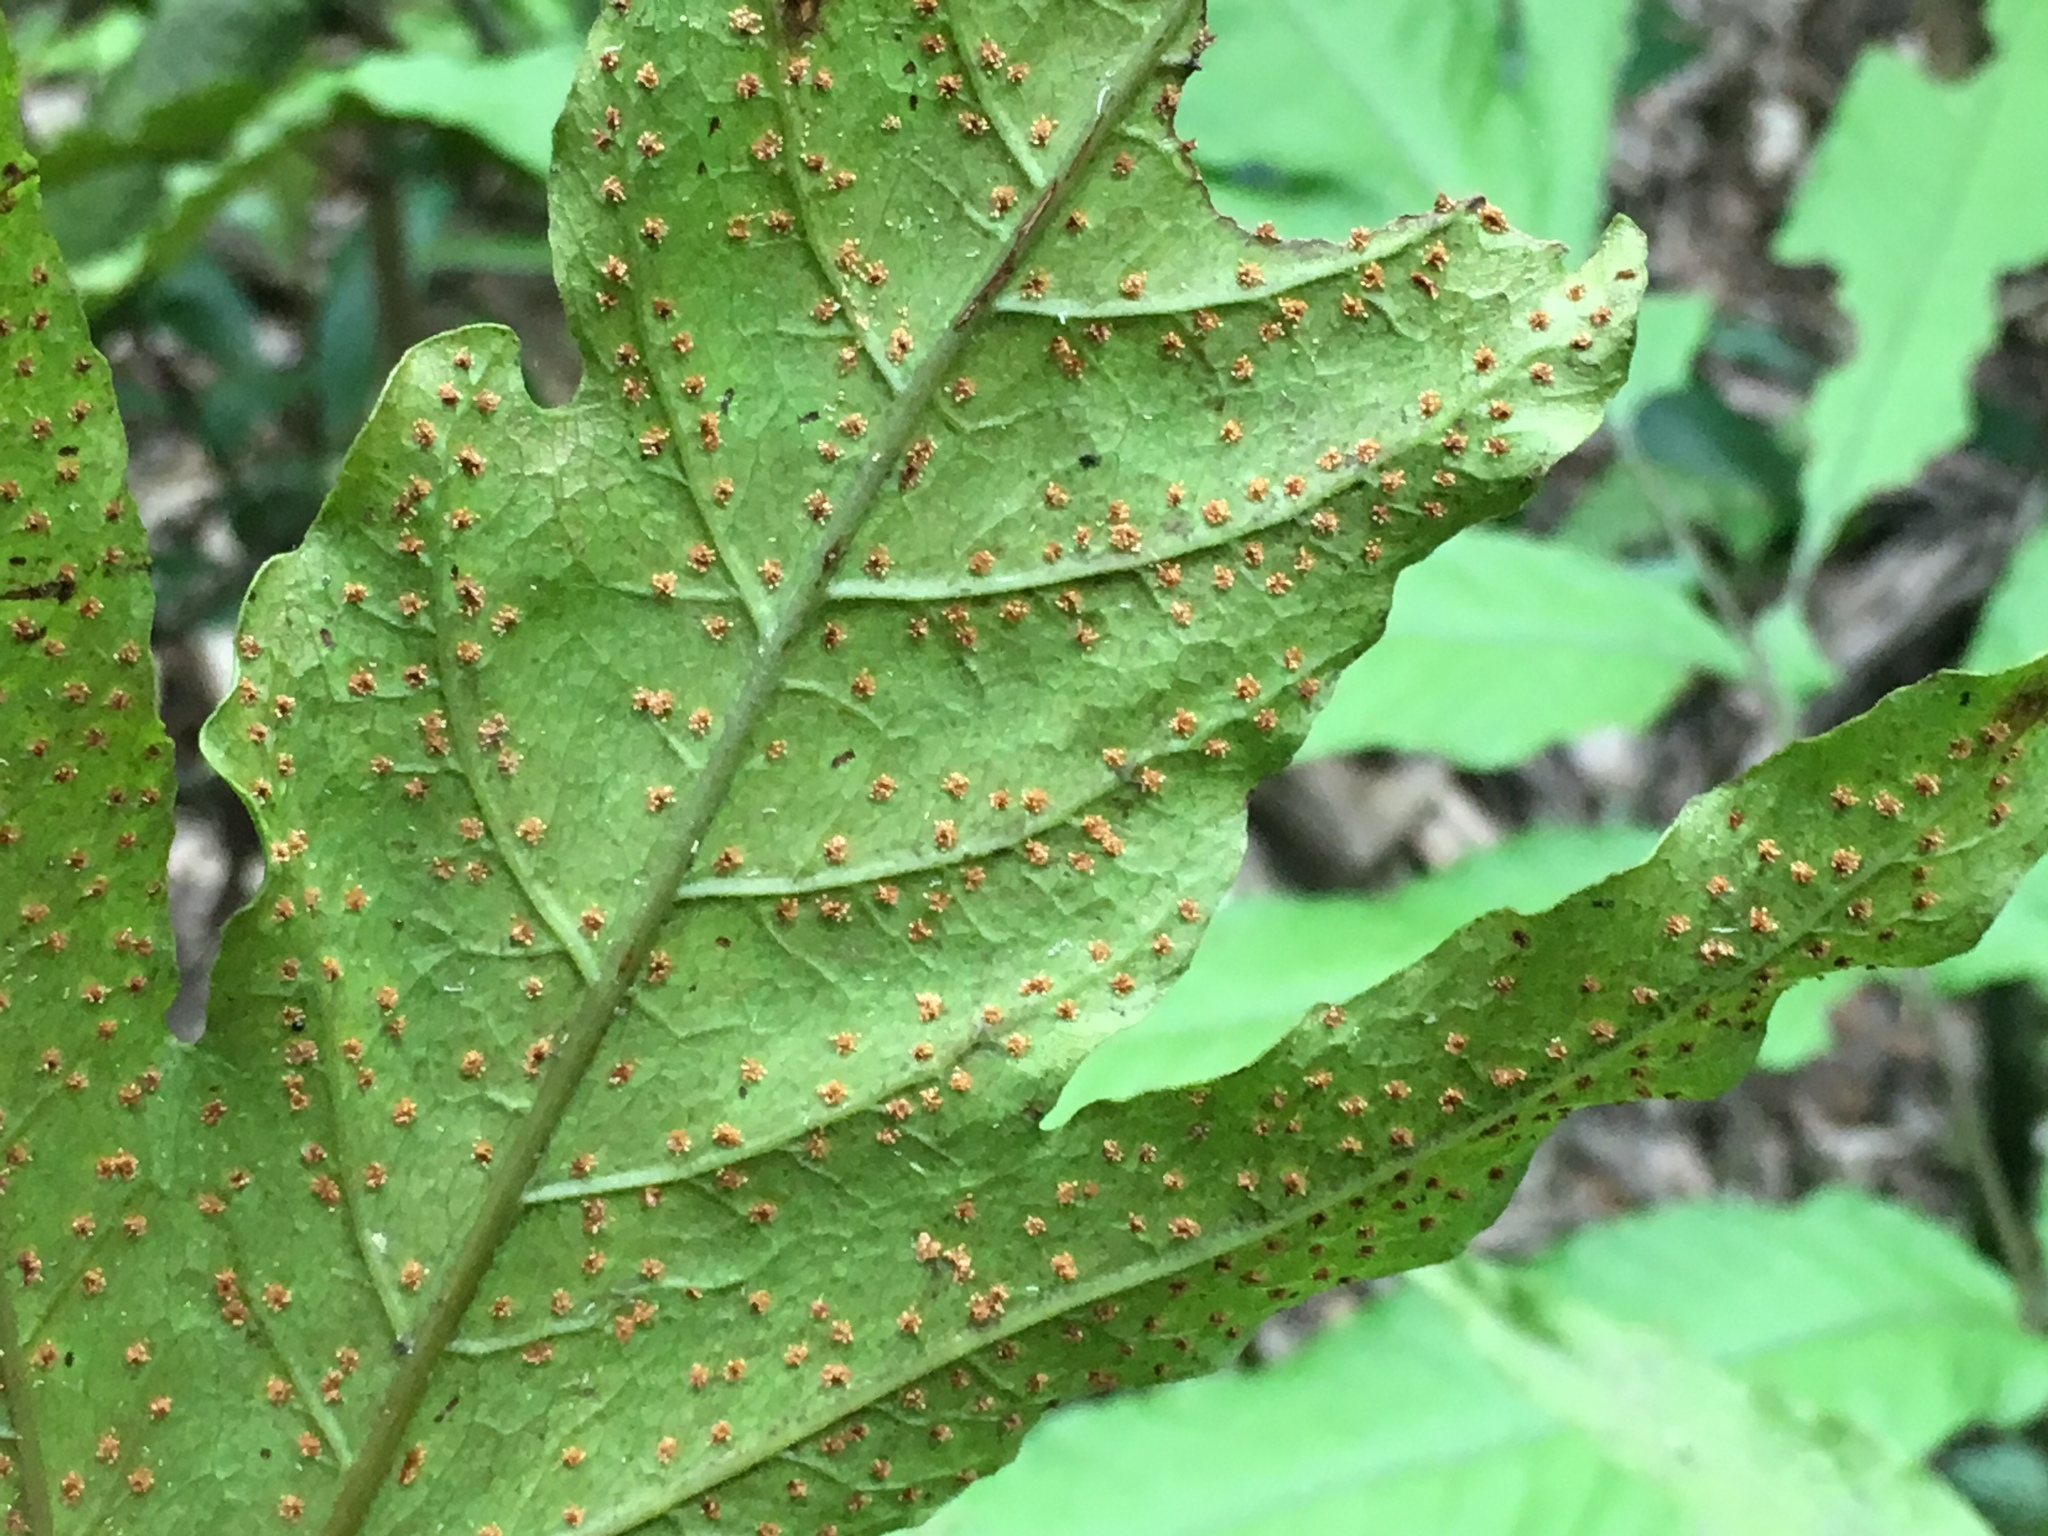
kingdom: Plantae
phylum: Tracheophyta
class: Polypodiopsida
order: Polypodiales
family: Tectariaceae
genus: Tectaria
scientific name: Tectaria incisa
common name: Incised halberd fern
